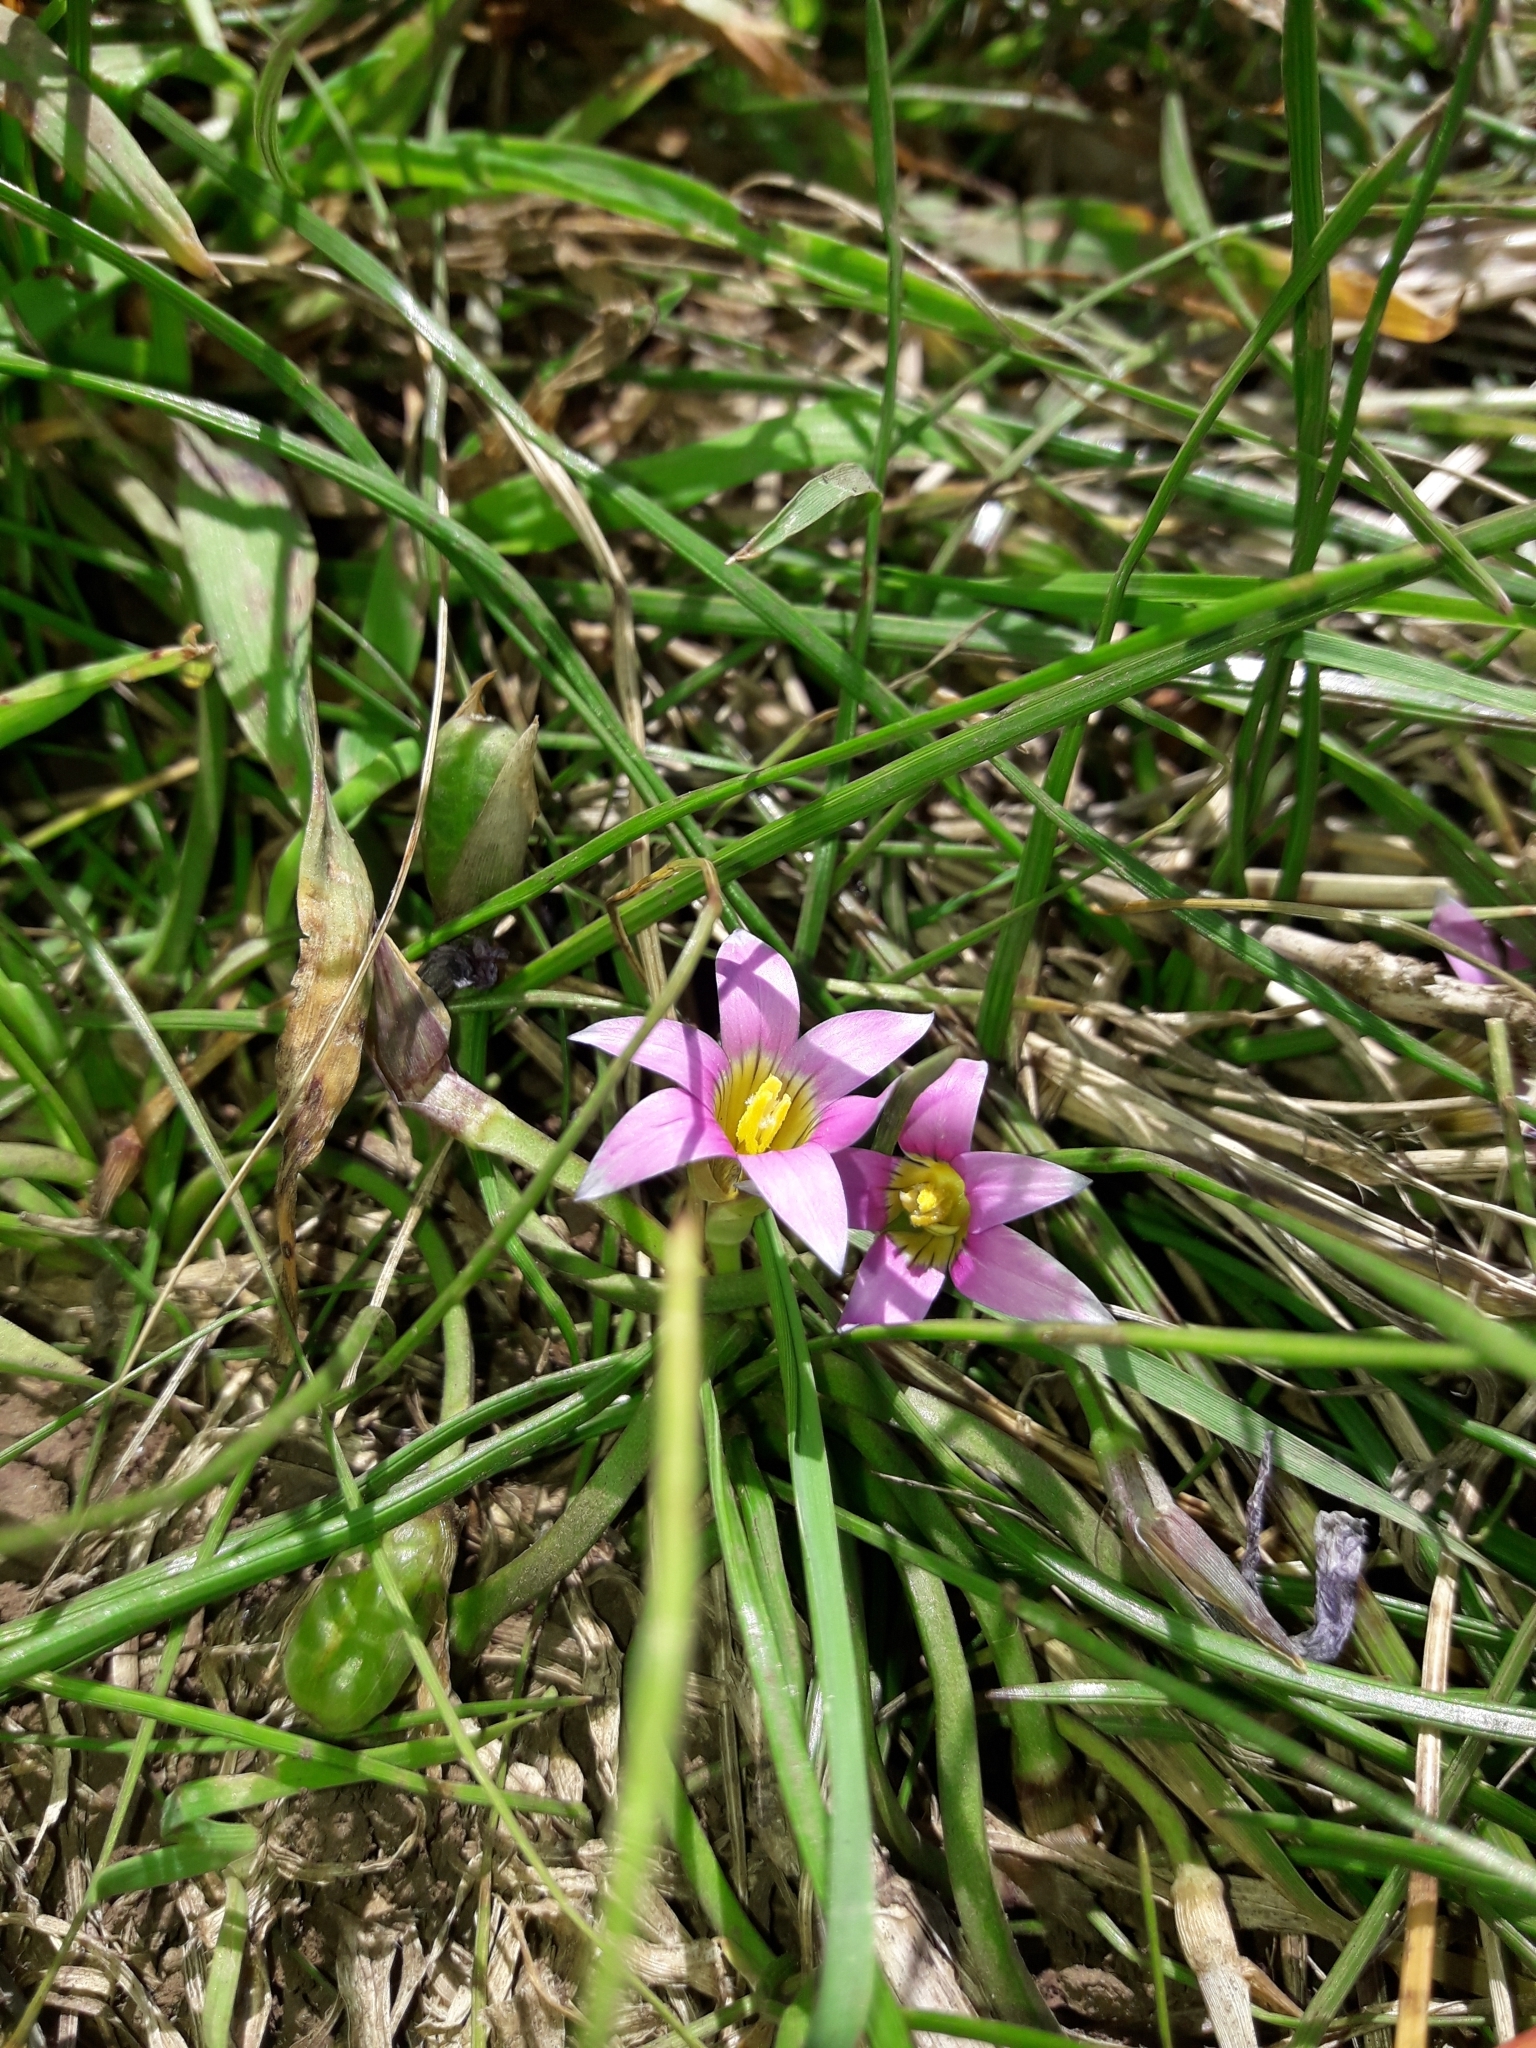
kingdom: Plantae
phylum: Tracheophyta
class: Liliopsida
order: Asparagales
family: Iridaceae
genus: Romulea
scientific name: Romulea rosea
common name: Oniongrass
